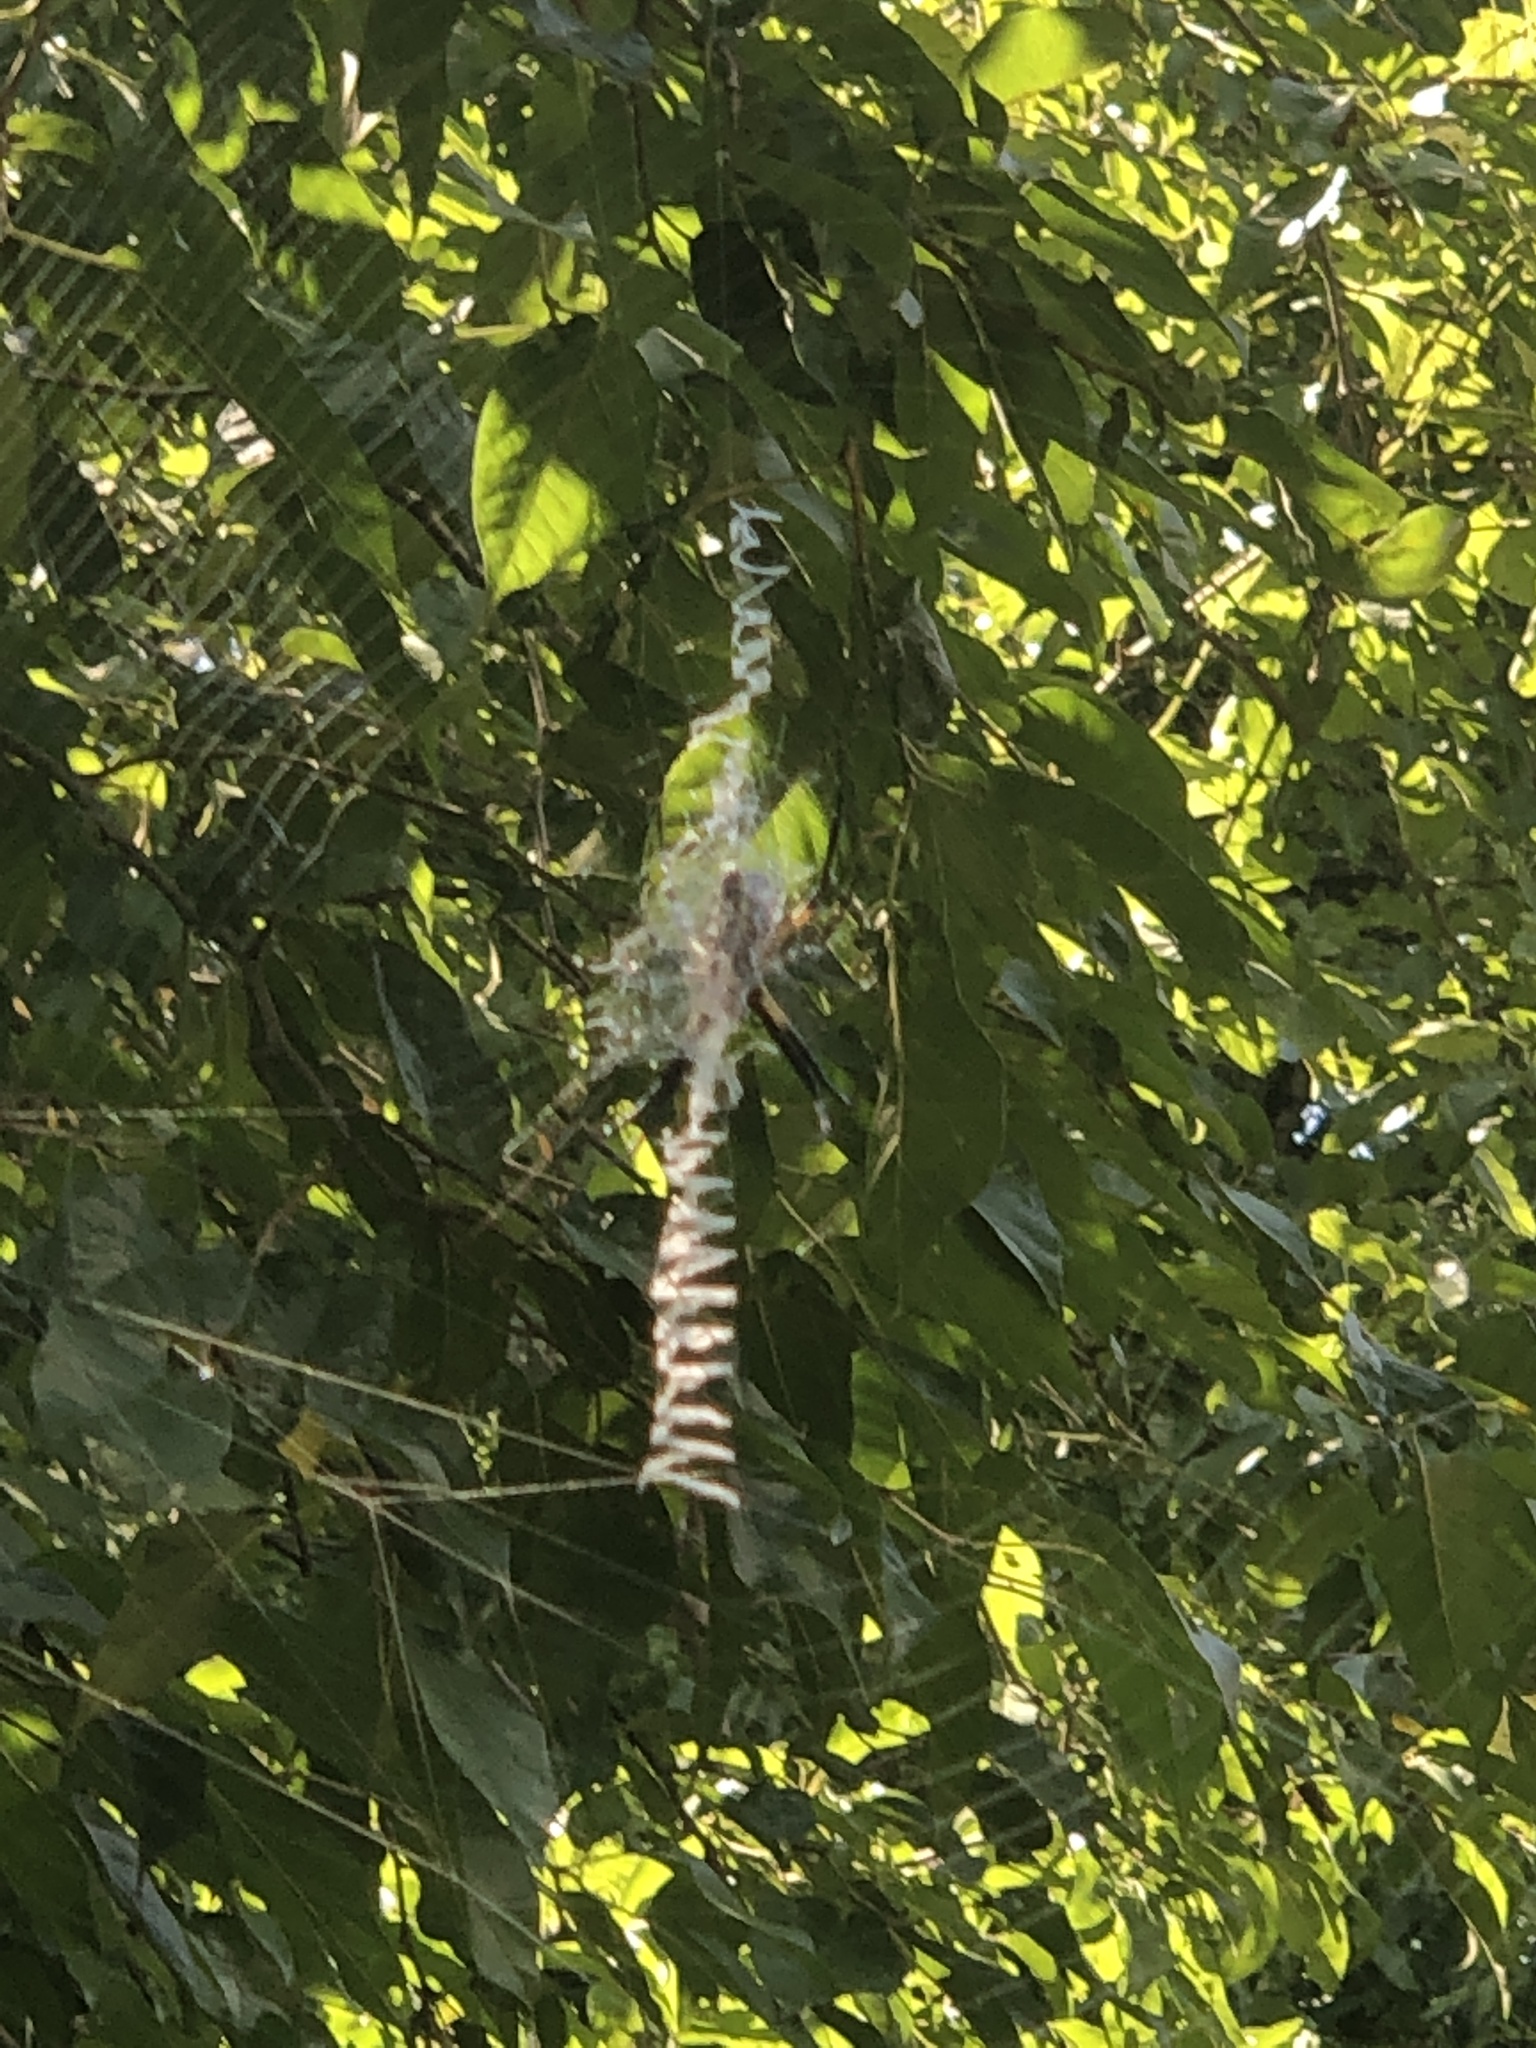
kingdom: Animalia
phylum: Arthropoda
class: Arachnida
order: Araneae
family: Araneidae
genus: Argiope
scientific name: Argiope aurantia
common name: Orb weavers
